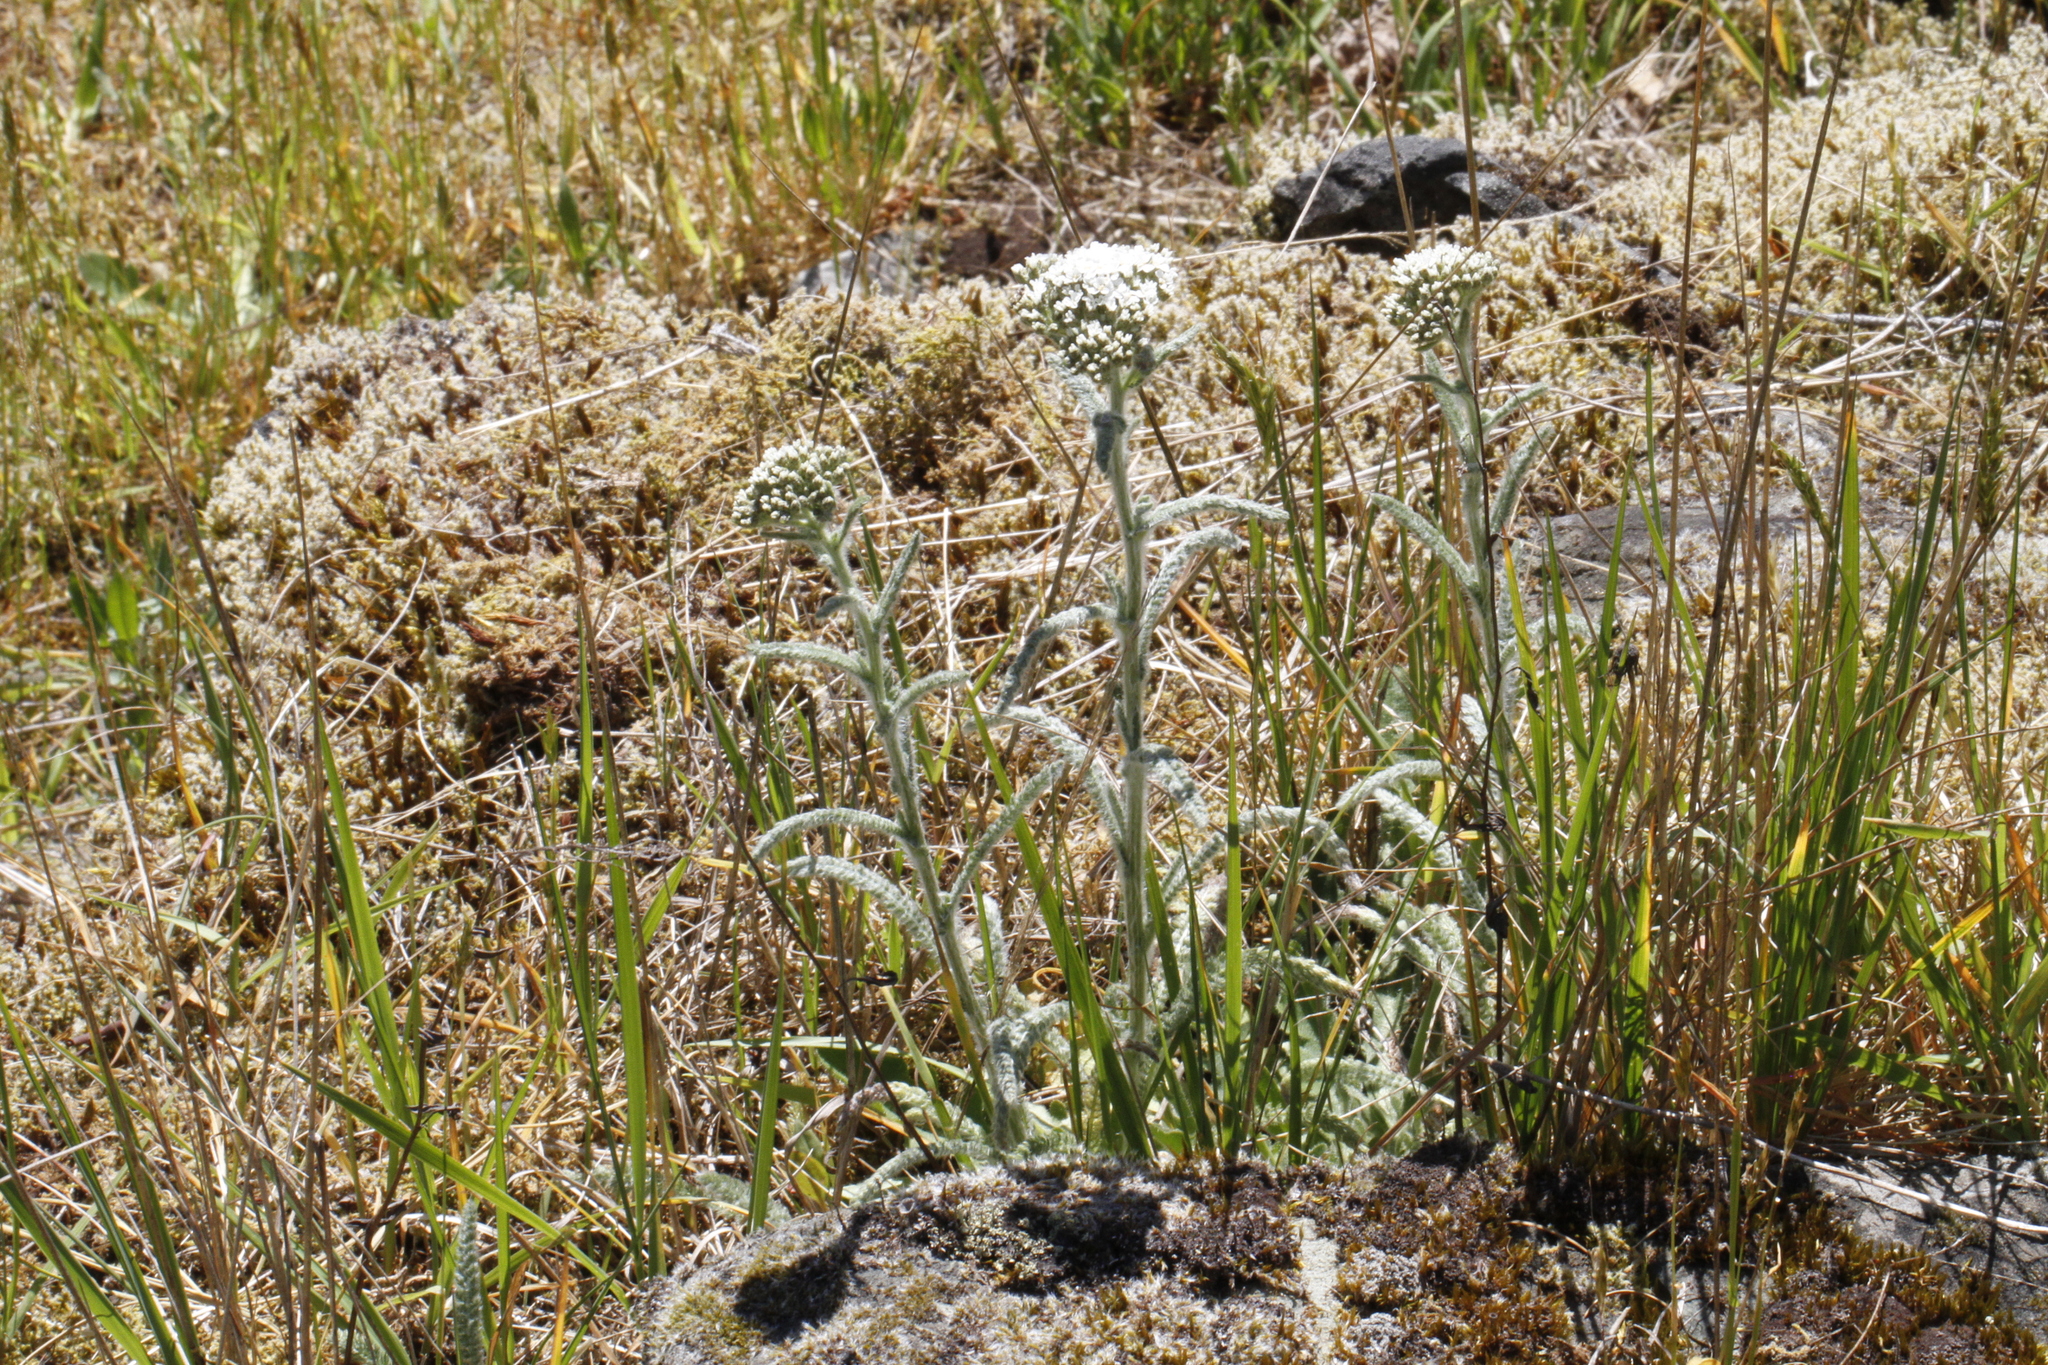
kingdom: Plantae
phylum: Tracheophyta
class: Magnoliopsida
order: Asterales
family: Asteraceae
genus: Achillea
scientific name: Achillea millefolium
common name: Yarrow
